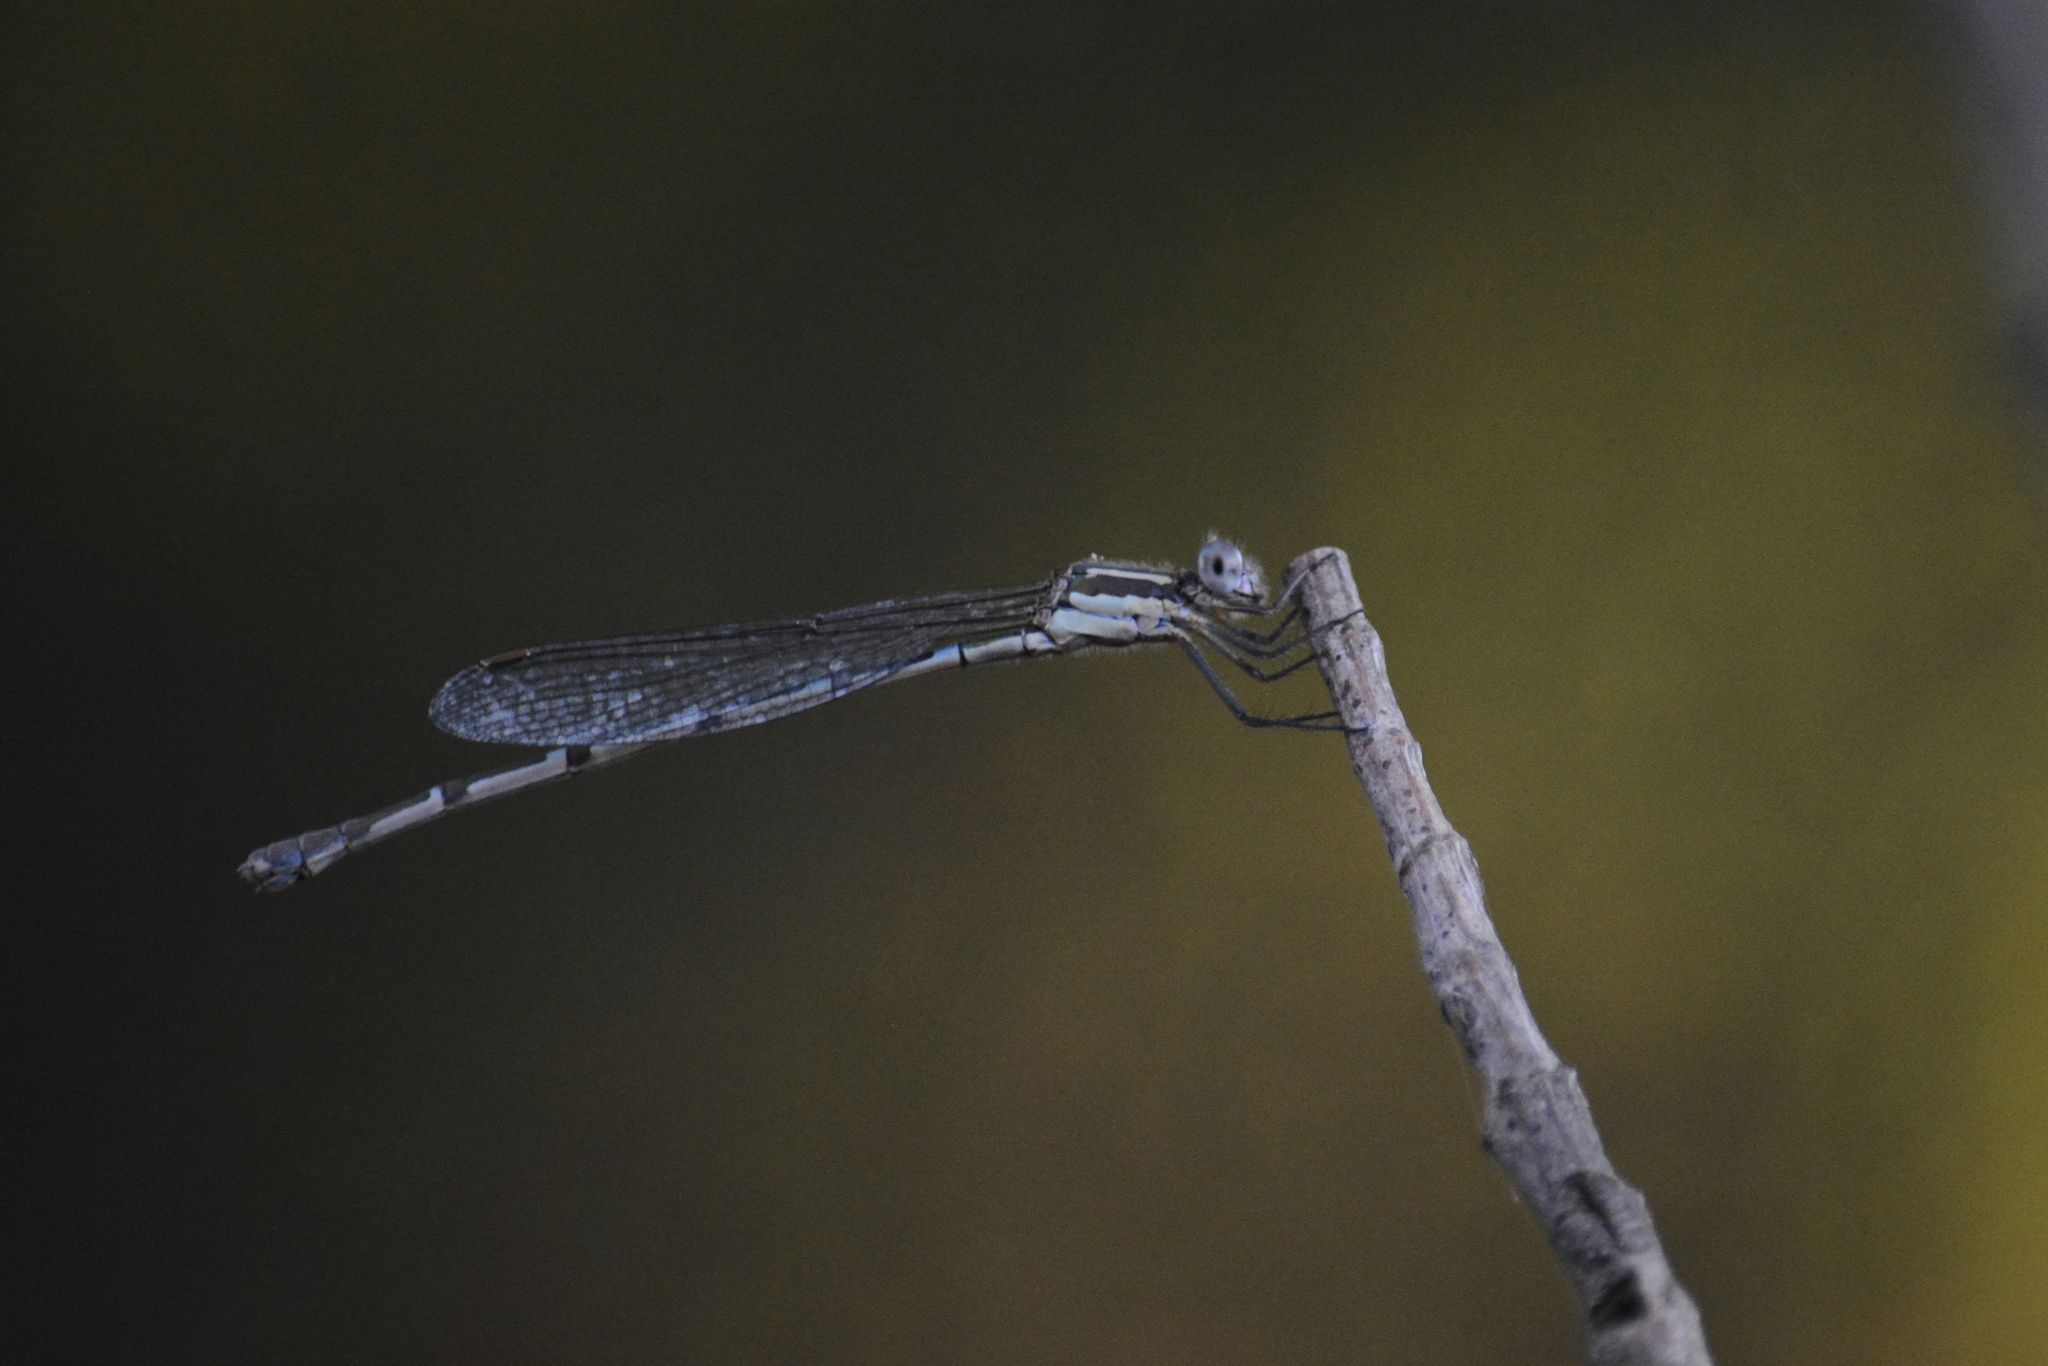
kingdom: Animalia
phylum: Arthropoda
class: Insecta
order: Odonata
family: Lestidae
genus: Austrolestes
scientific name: Austrolestes leda
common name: Wandering ringtail
